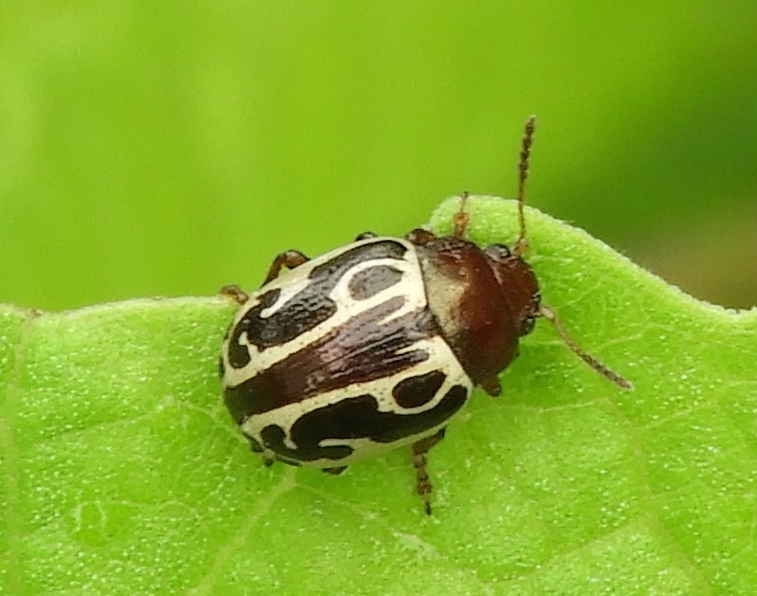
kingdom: Animalia
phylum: Arthropoda
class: Insecta
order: Coleoptera
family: Chrysomelidae
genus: Zygogramma
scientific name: Zygogramma
